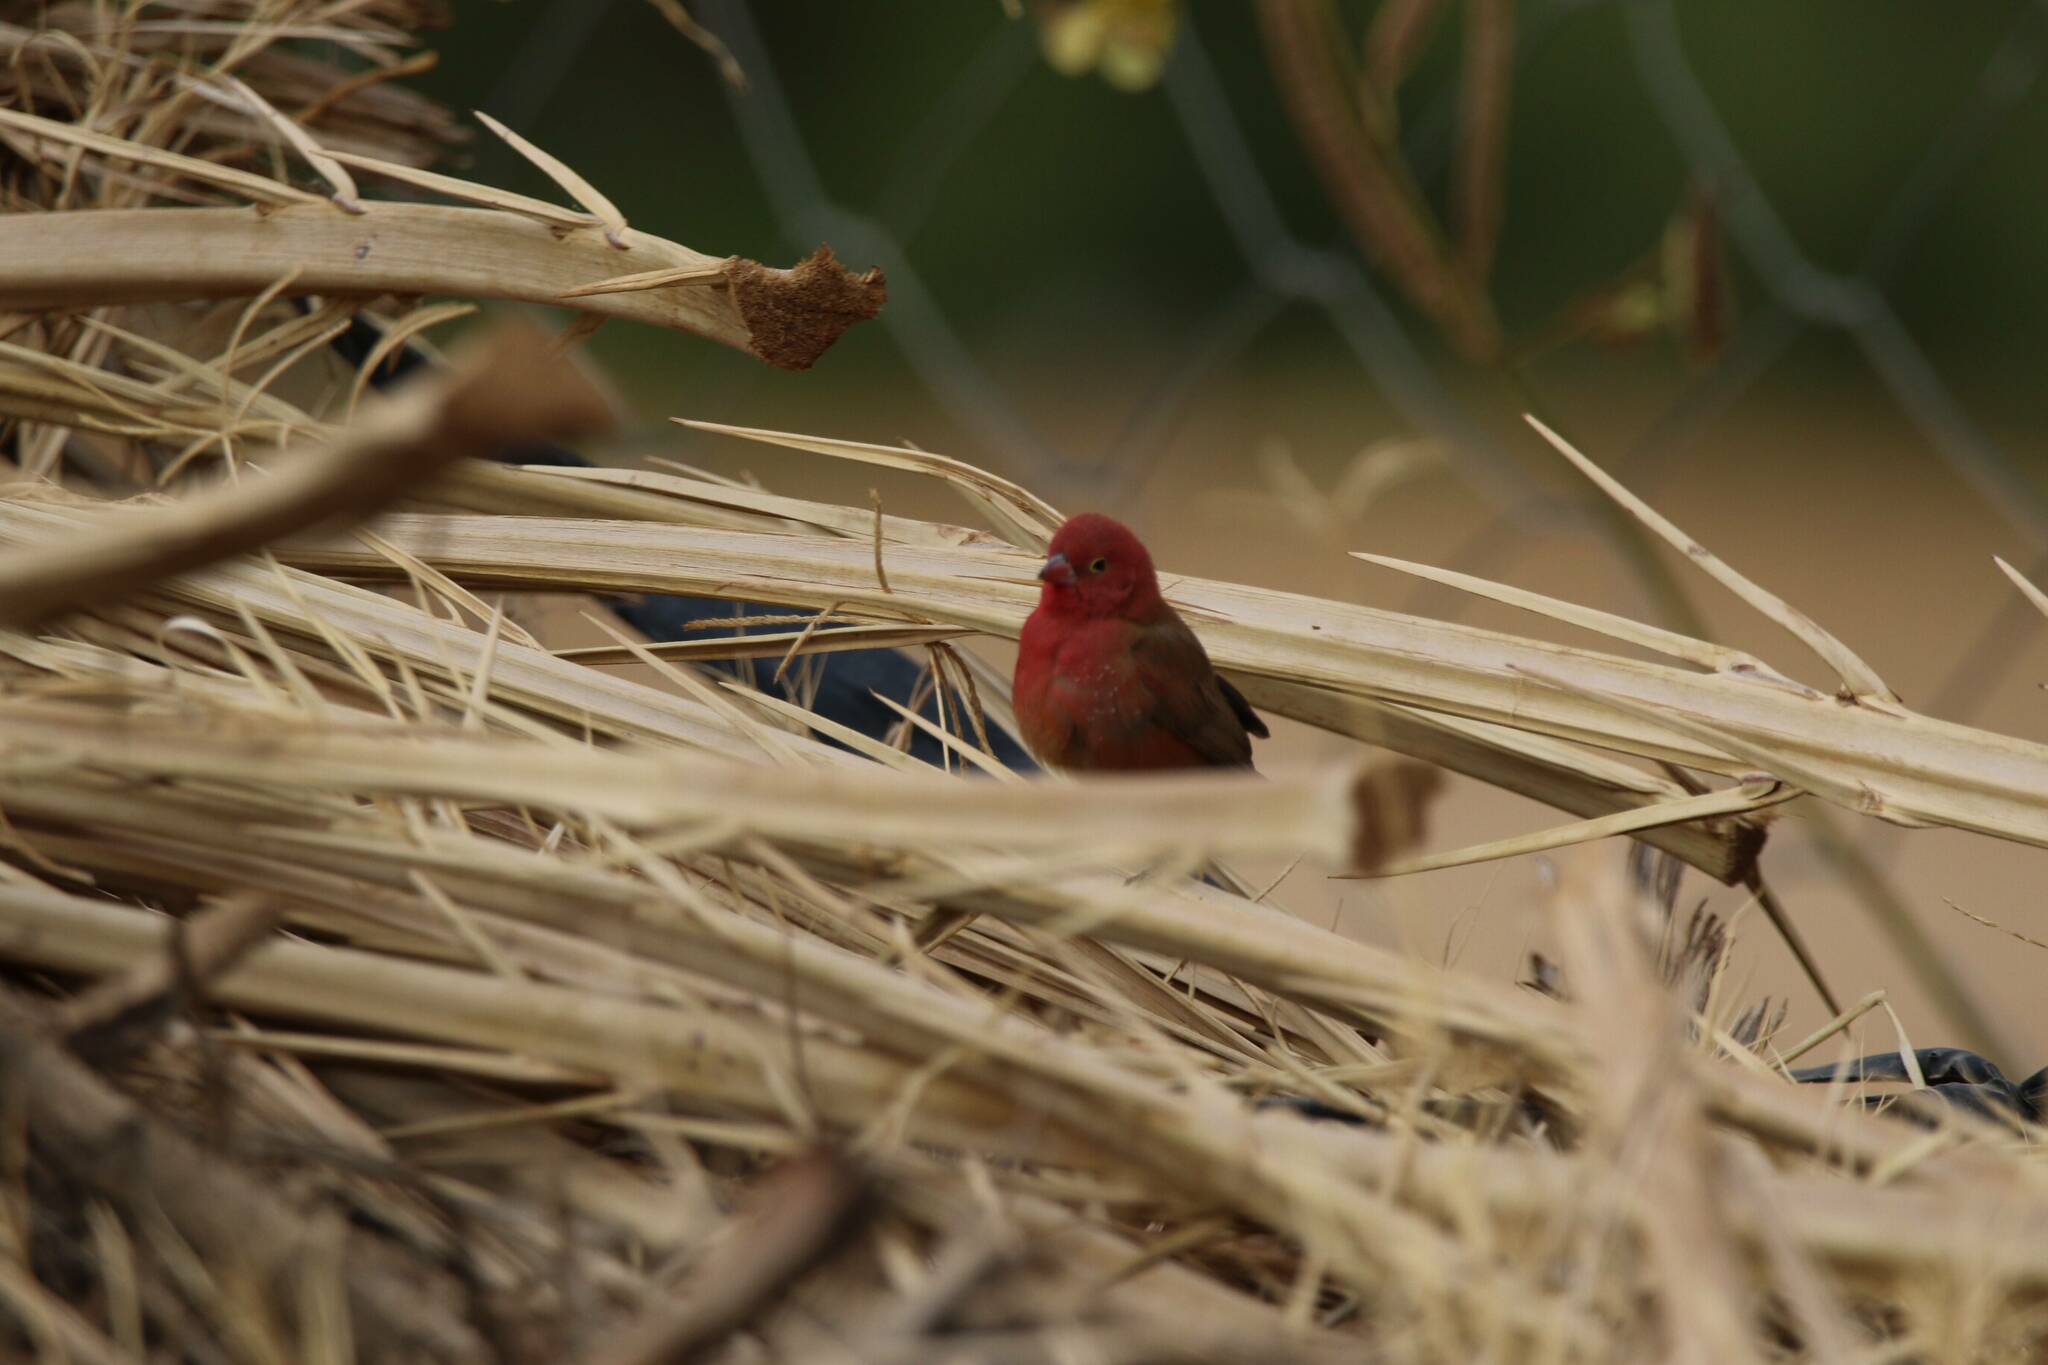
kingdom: Animalia
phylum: Chordata
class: Aves
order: Passeriformes
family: Estrildidae
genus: Lagonosticta
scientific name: Lagonosticta senegala
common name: Red-billed firefinch
